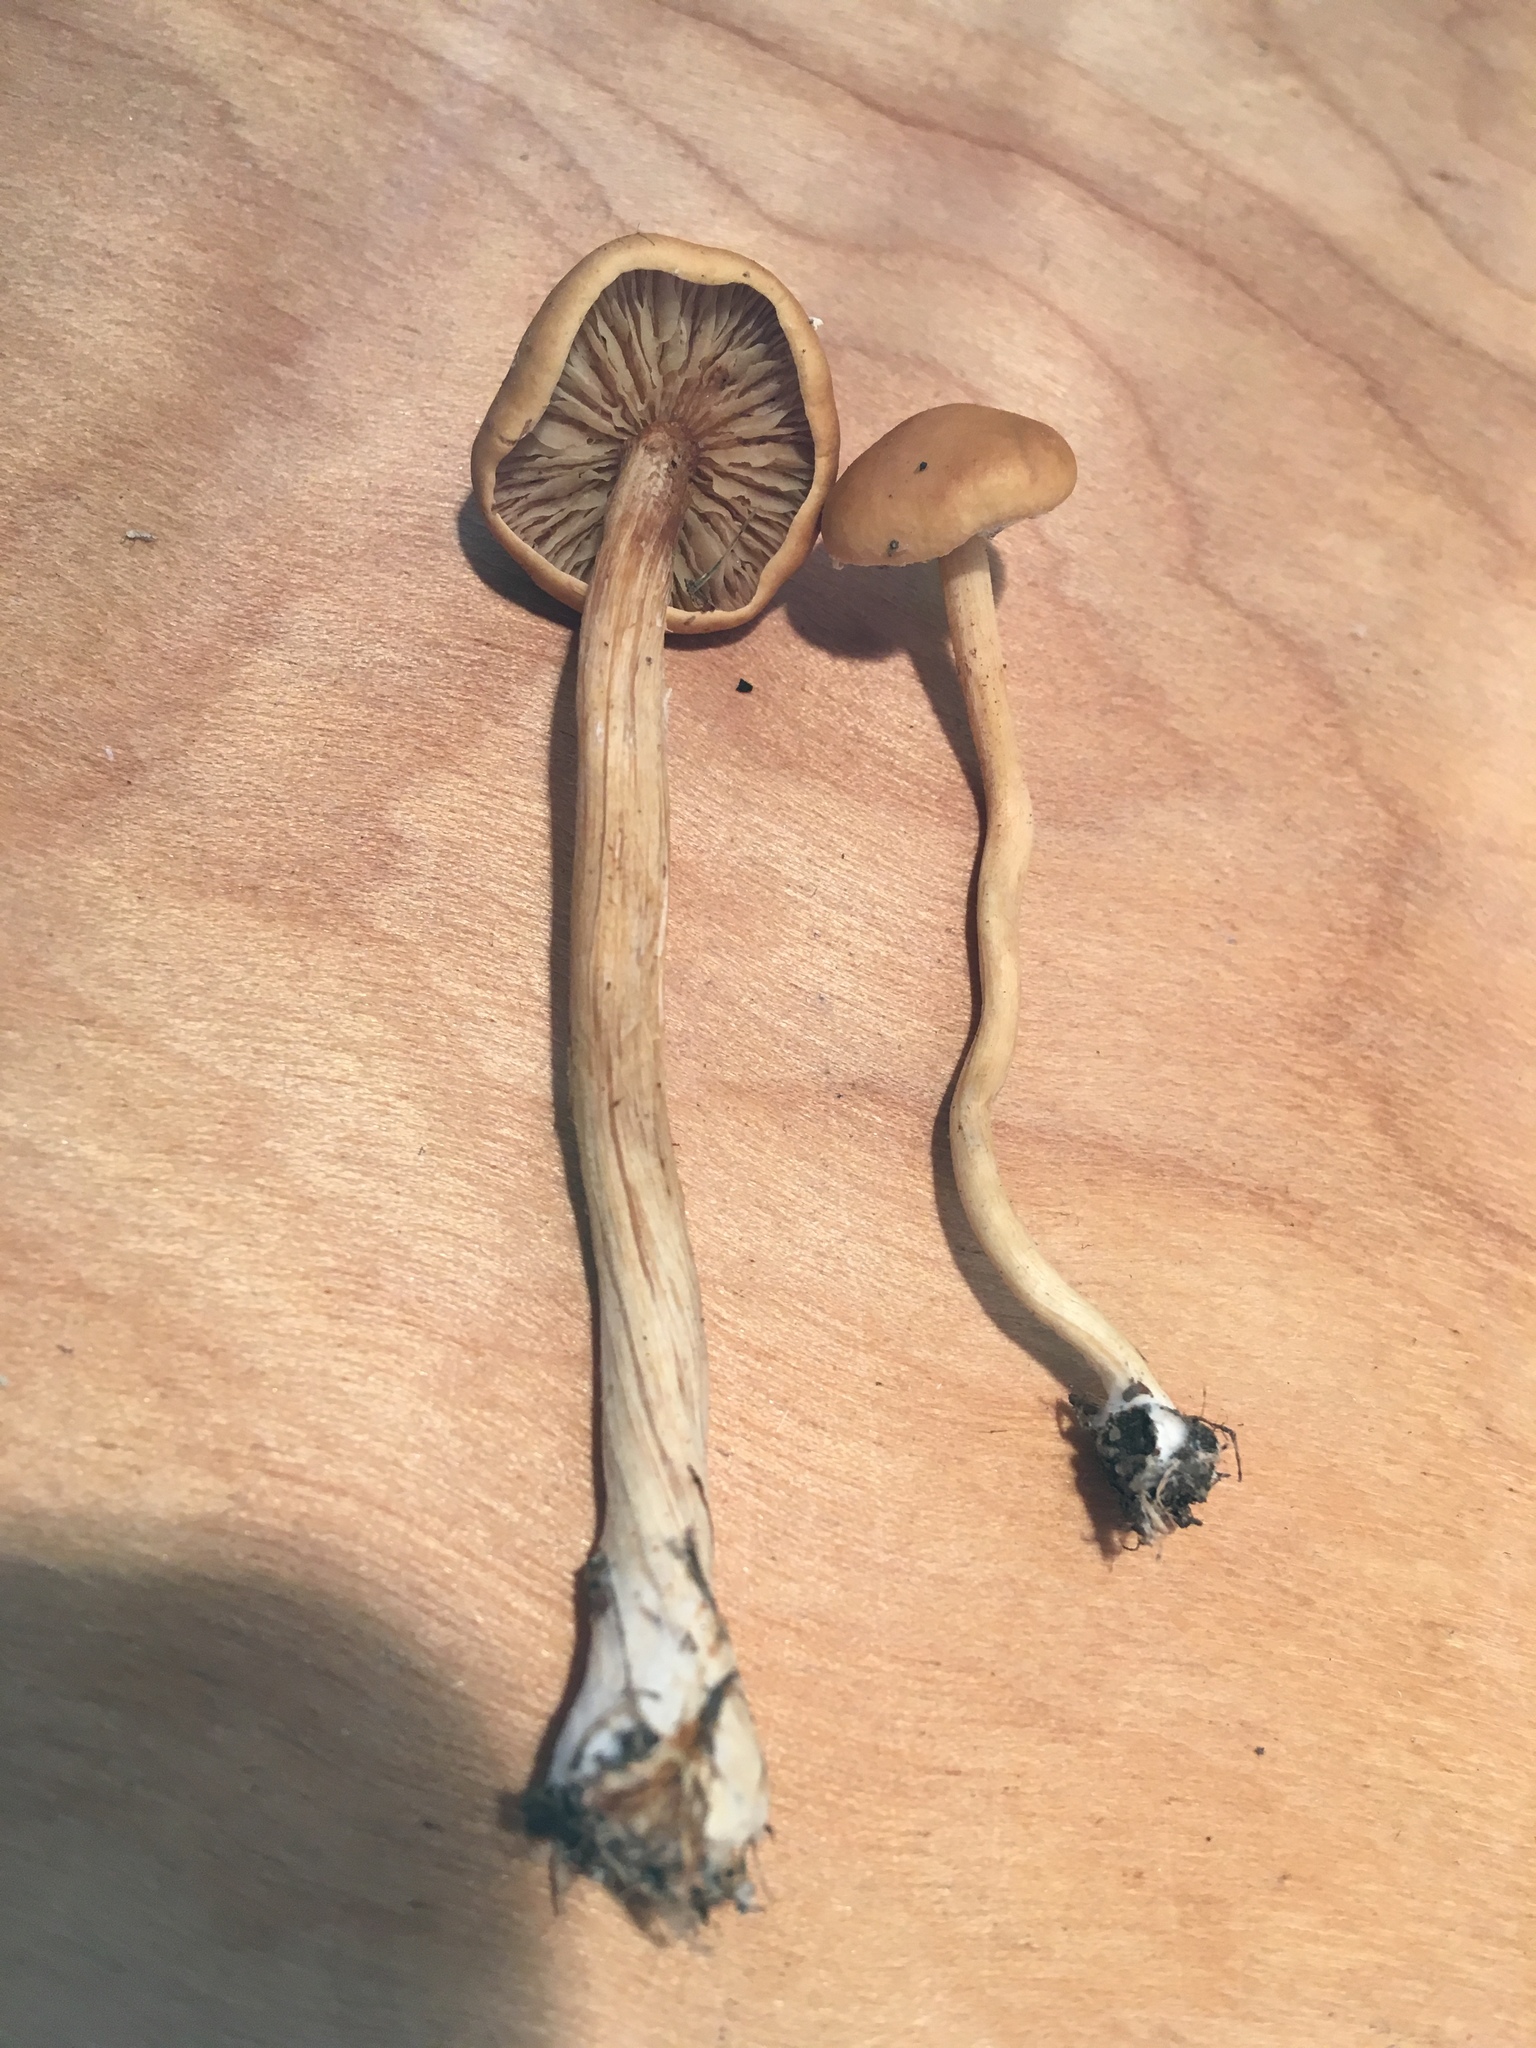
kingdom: Fungi
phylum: Basidiomycota
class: Agaricomycetes
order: Agaricales
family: Strophariaceae
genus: Agrocybe
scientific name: Agrocybe pediades
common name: Common fieldcap
